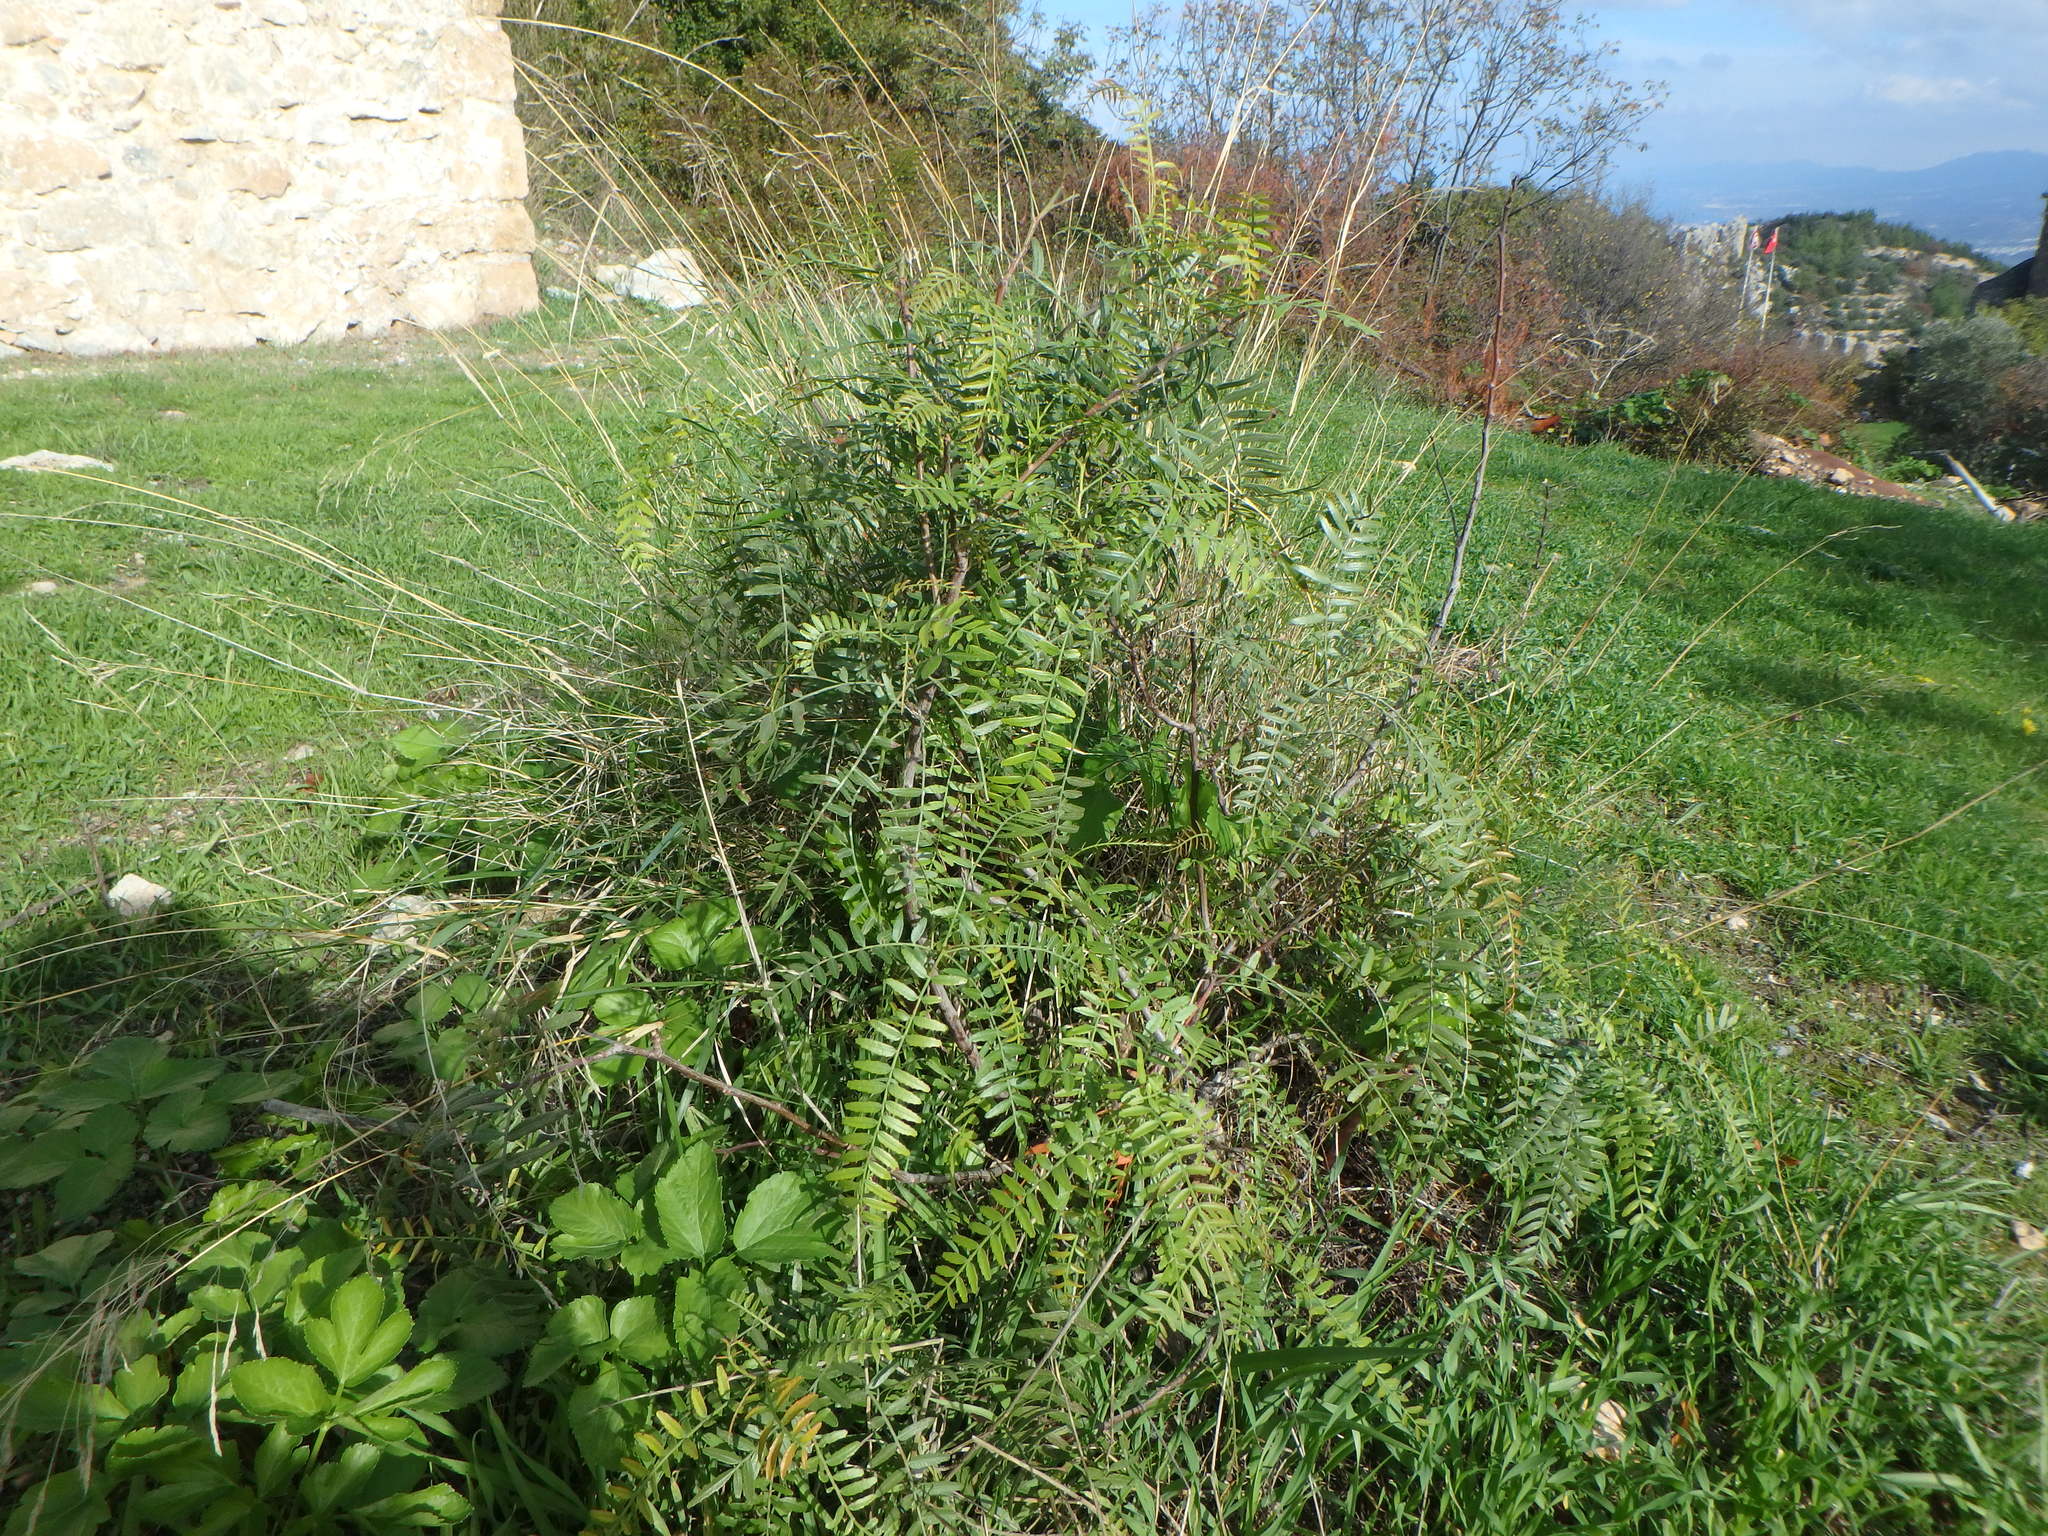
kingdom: Plantae
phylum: Tracheophyta
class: Magnoliopsida
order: Sapindales
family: Anacardiaceae
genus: Schinus
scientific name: Schinus molle
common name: Peruvian peppertree
